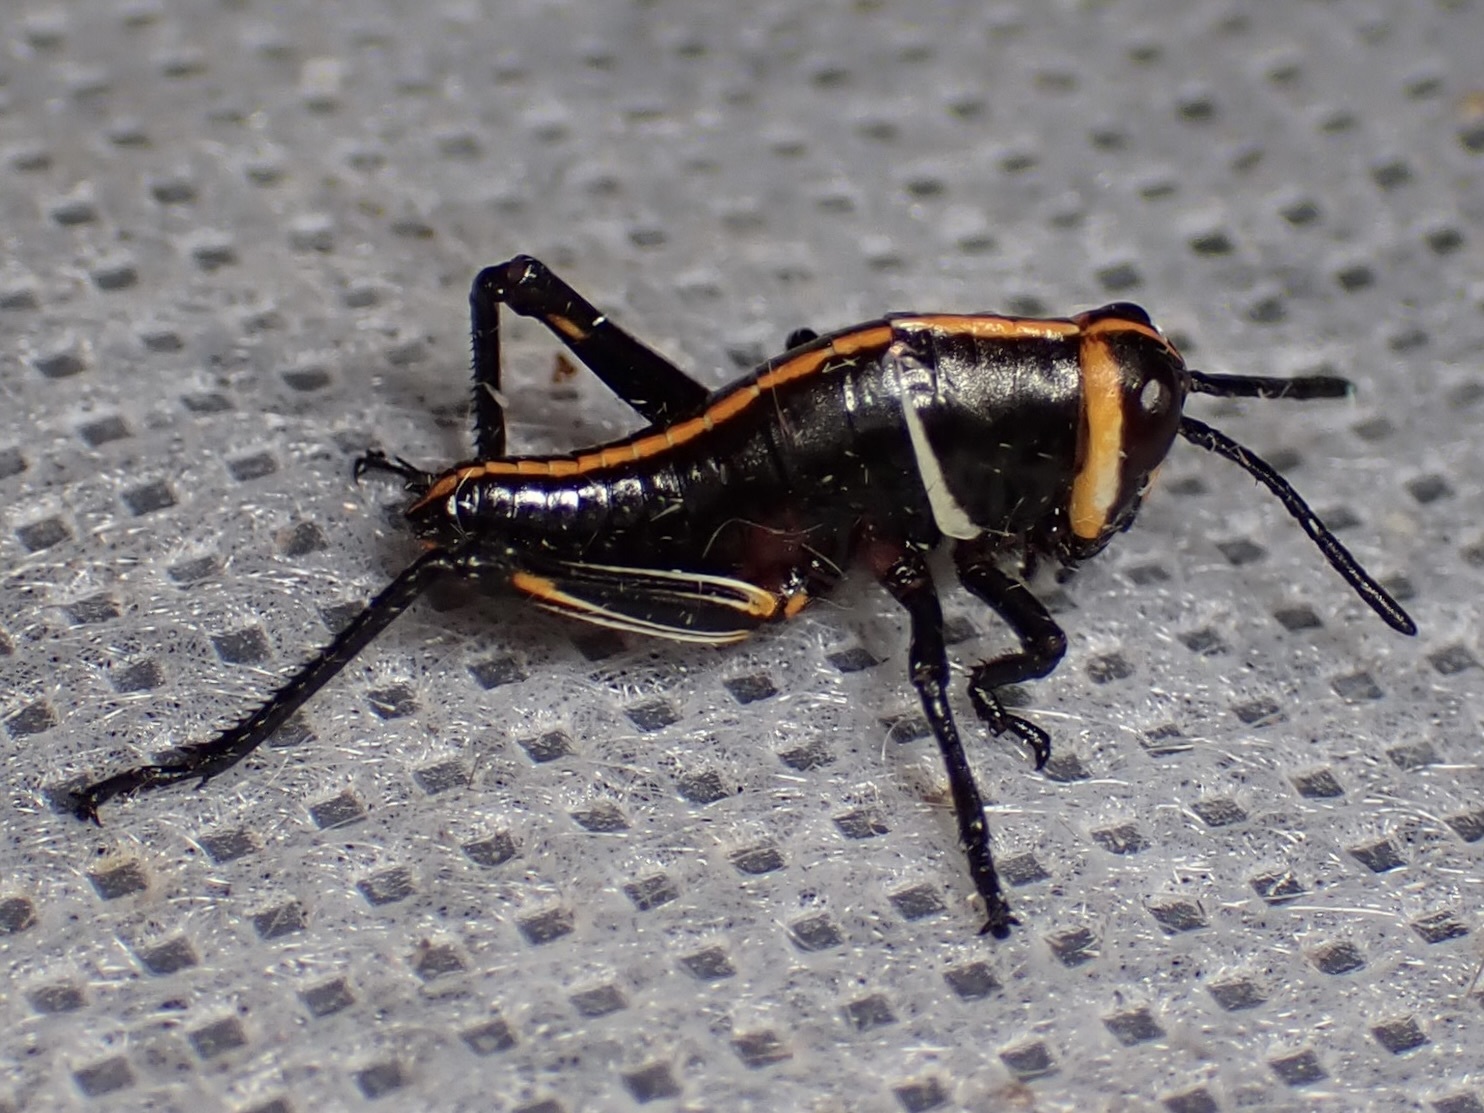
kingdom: Animalia
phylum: Arthropoda
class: Insecta
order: Orthoptera
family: Romaleidae
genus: Romalea
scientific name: Romalea
